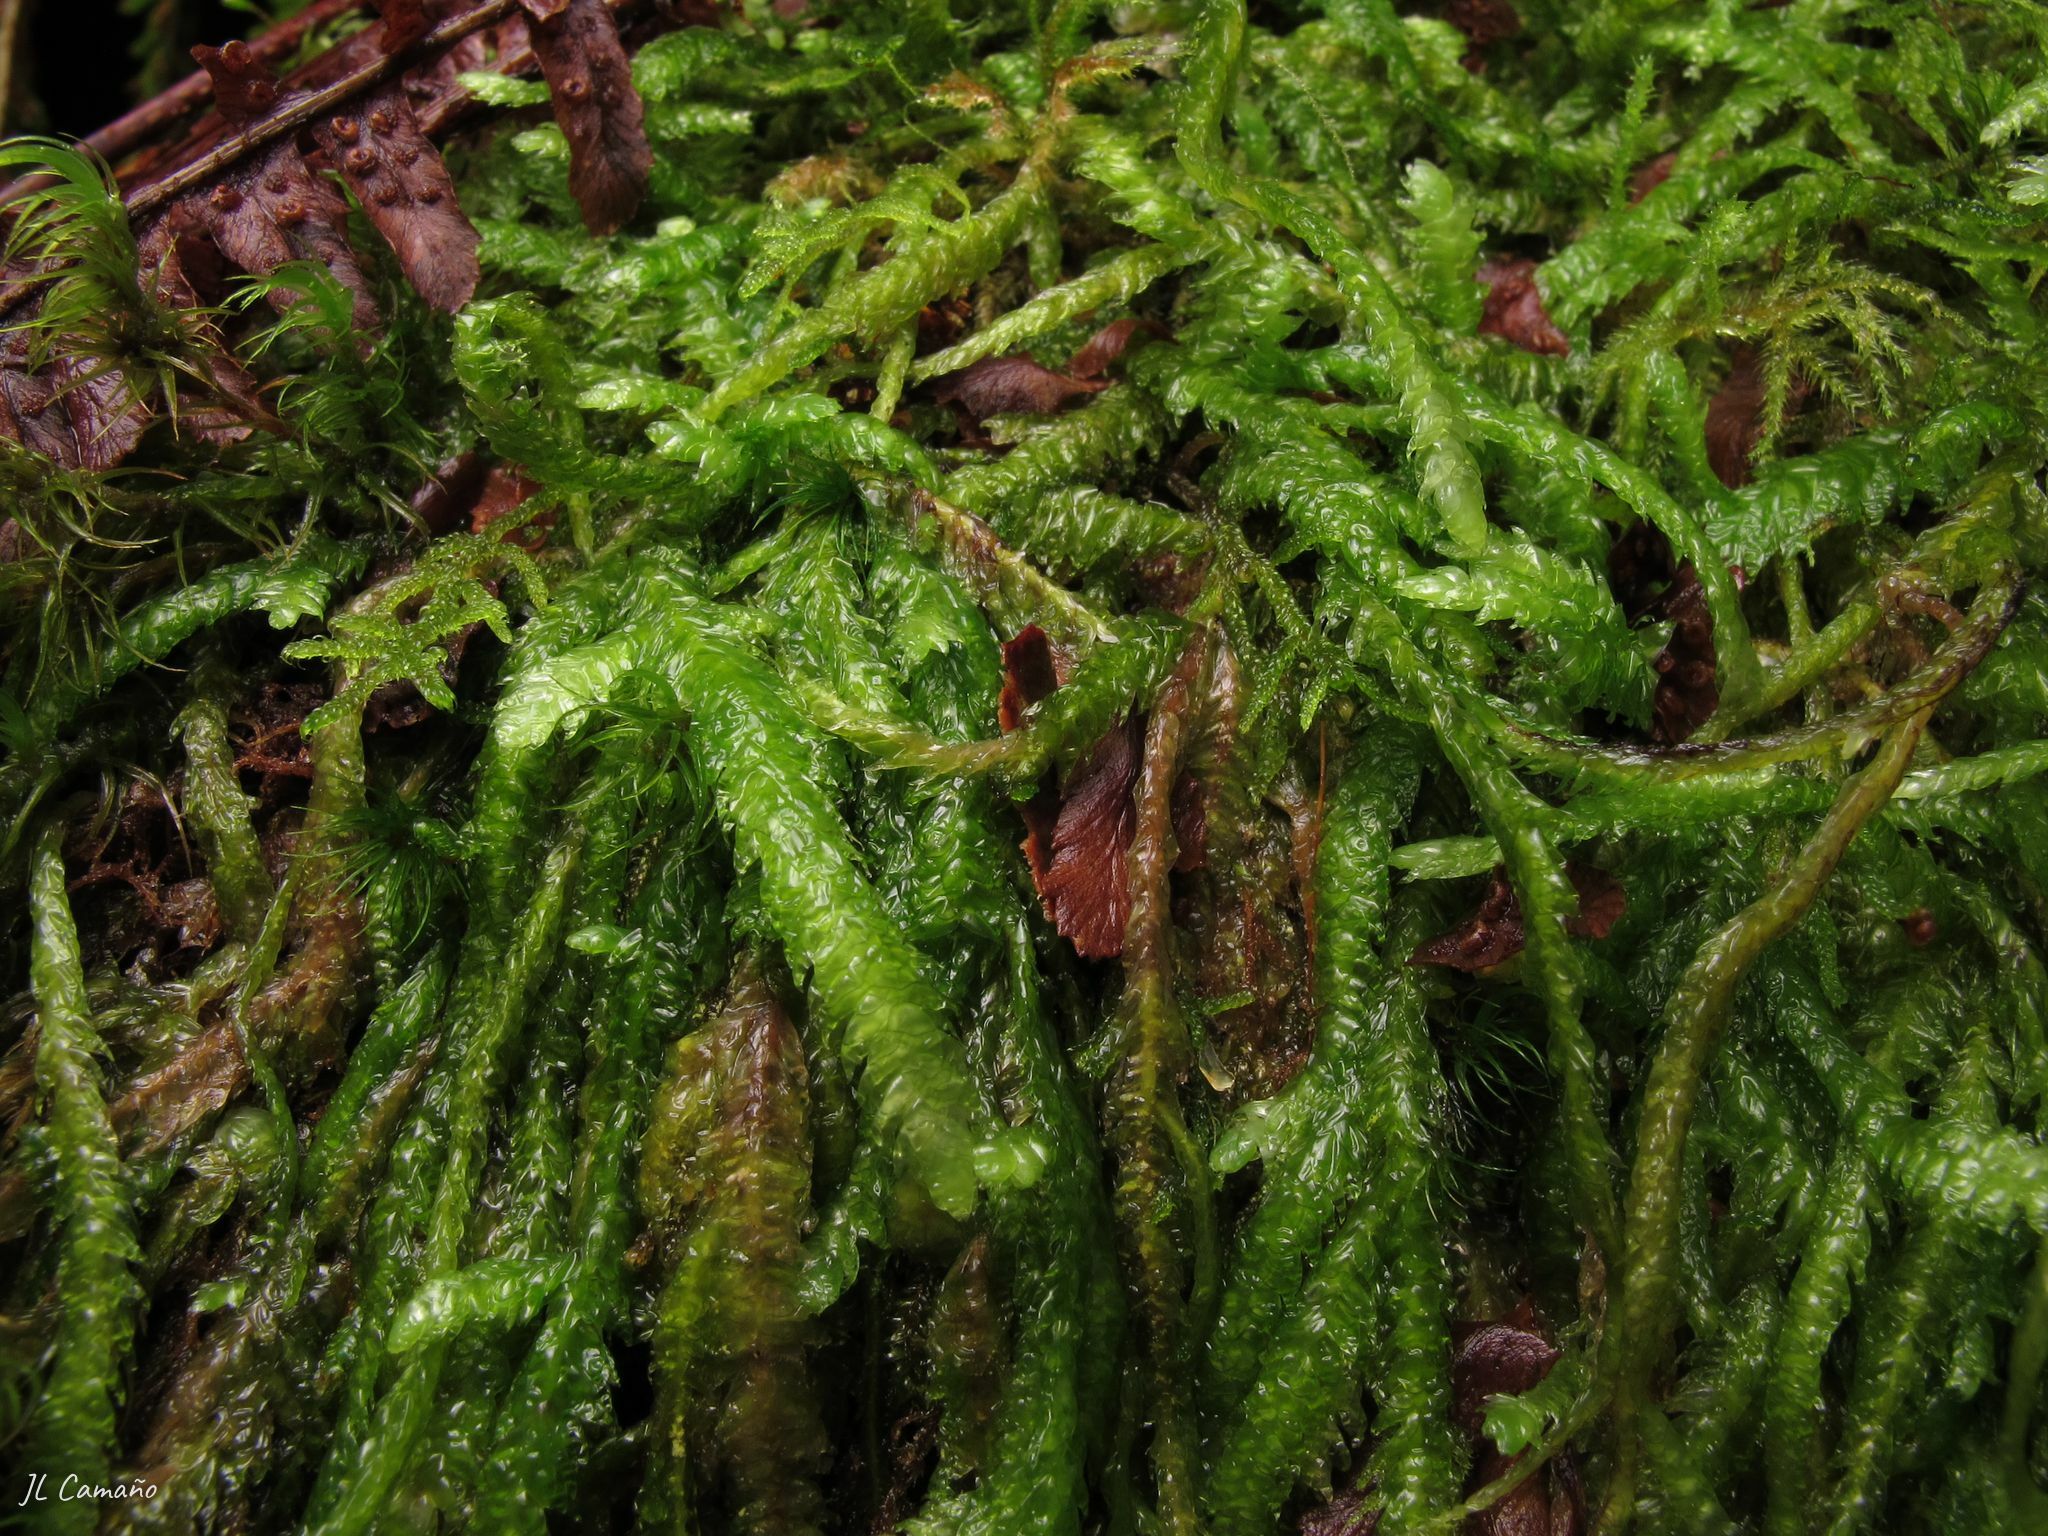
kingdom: Plantae
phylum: Bryophyta
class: Bryopsida
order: Hypnales
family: Plagiotheciaceae
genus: Plagiothecium
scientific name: Plagiothecium undulatum
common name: Waved silk-moss
